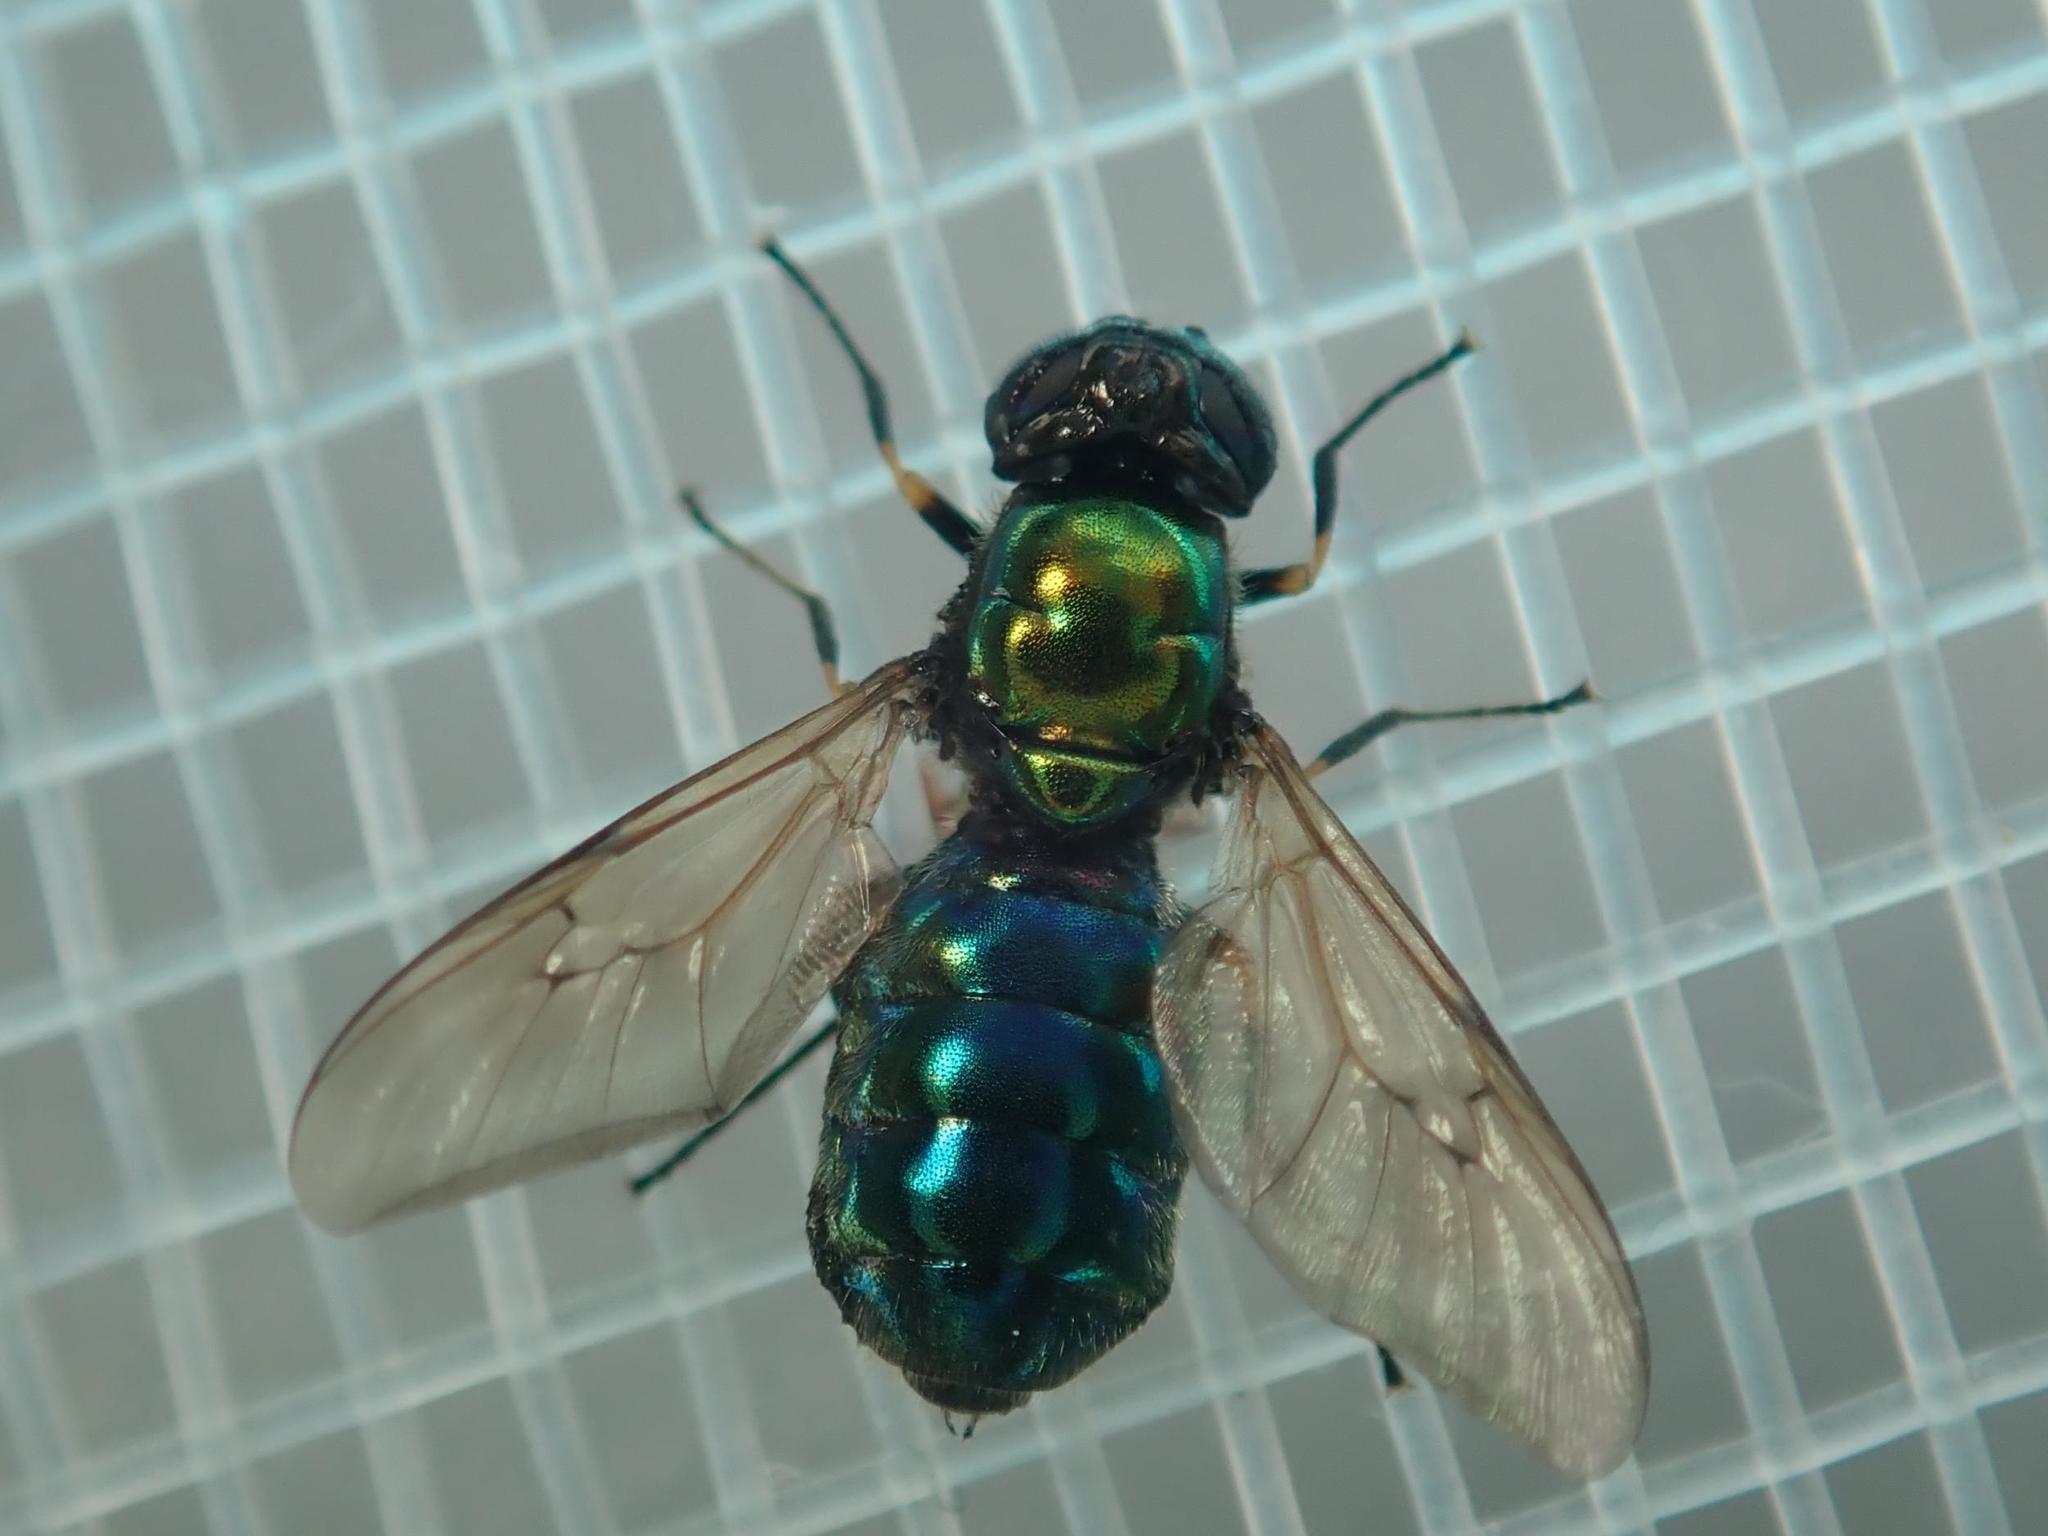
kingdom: Animalia
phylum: Arthropoda
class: Insecta
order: Diptera
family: Stratiomyidae
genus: Chloromyia
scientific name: Chloromyia formosa
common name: Soldier fly
